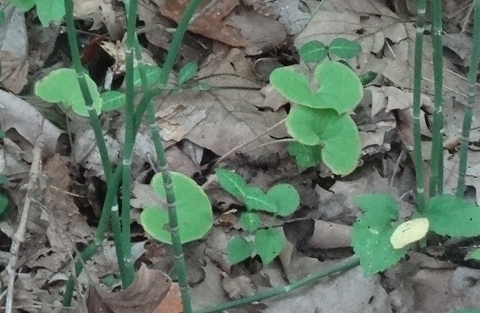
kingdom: Plantae
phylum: Tracheophyta
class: Magnoliopsida
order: Piperales
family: Aristolochiaceae
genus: Asarum
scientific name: Asarum canadense
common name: Wild ginger
